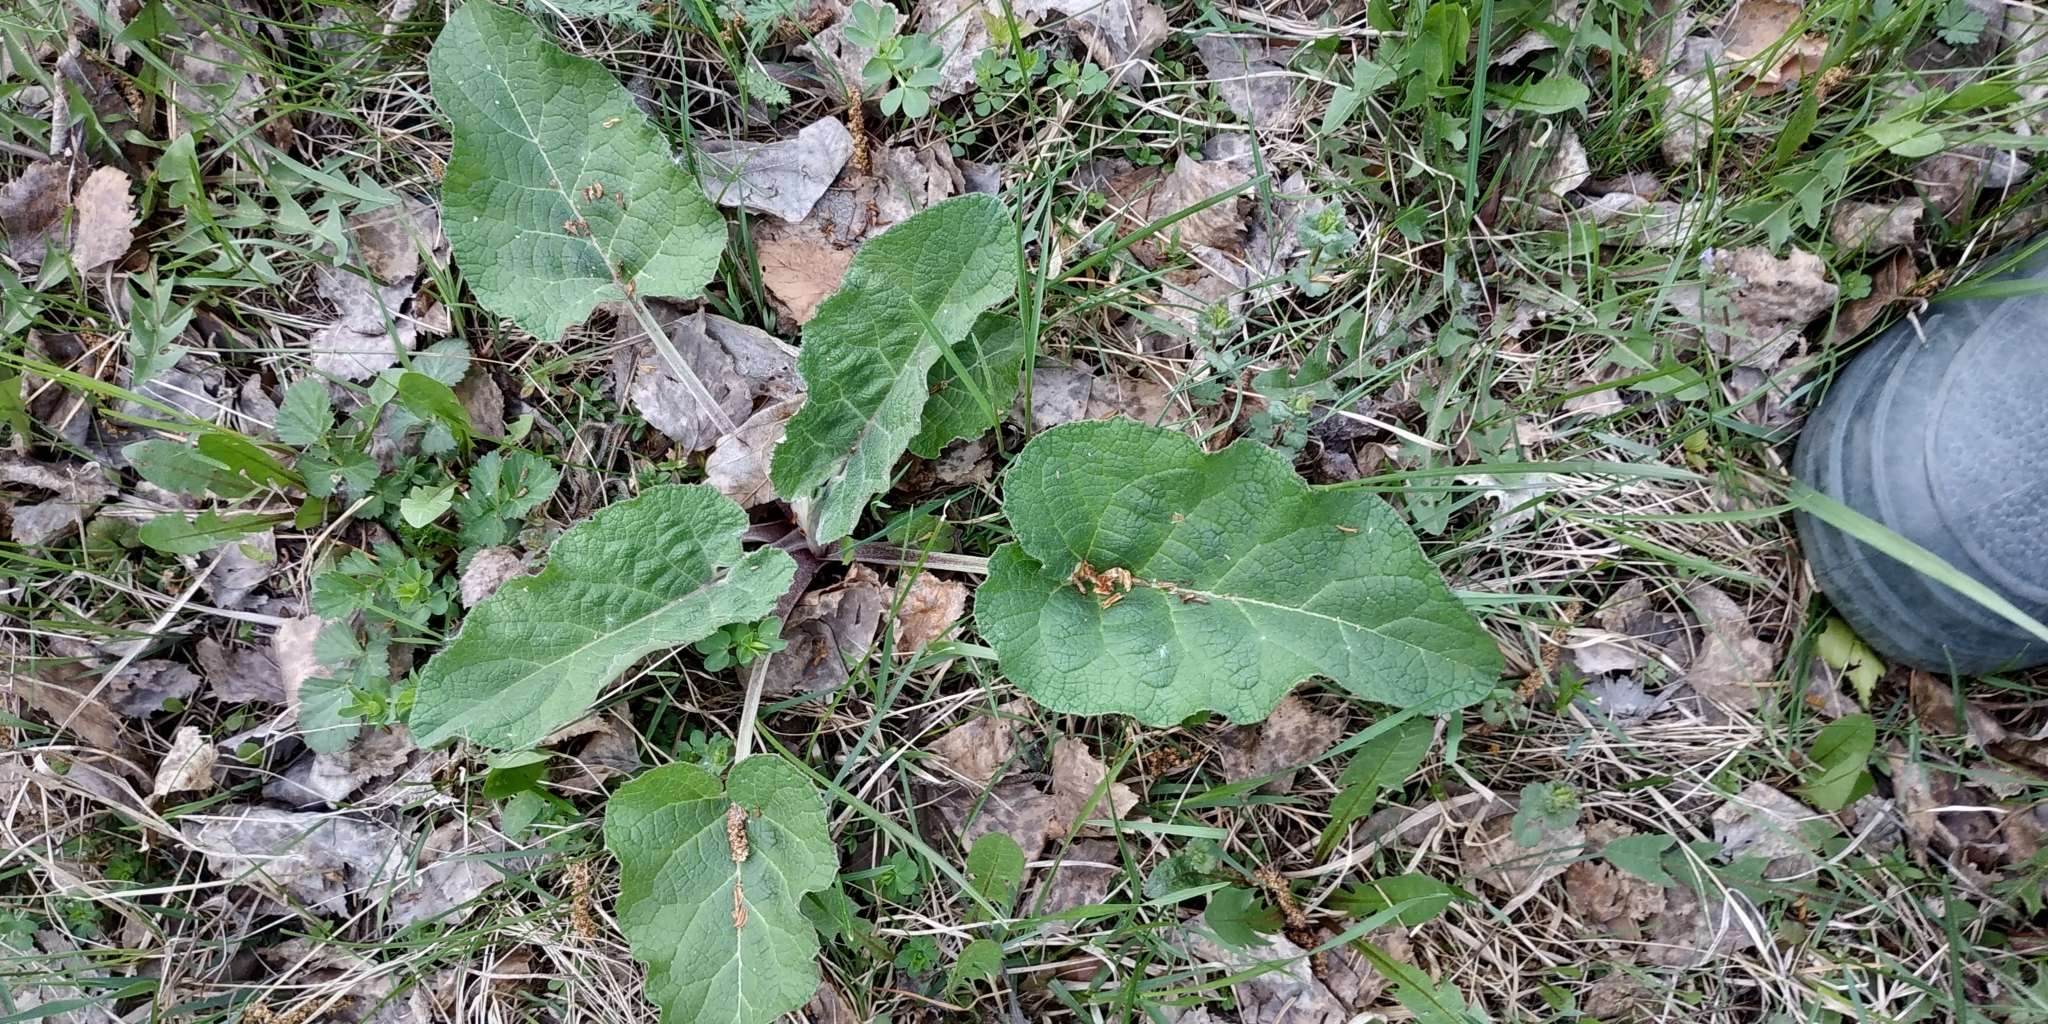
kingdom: Plantae
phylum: Tracheophyta
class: Magnoliopsida
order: Asterales
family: Asteraceae
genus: Arctium
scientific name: Arctium tomentosum
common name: Woolly burdock
